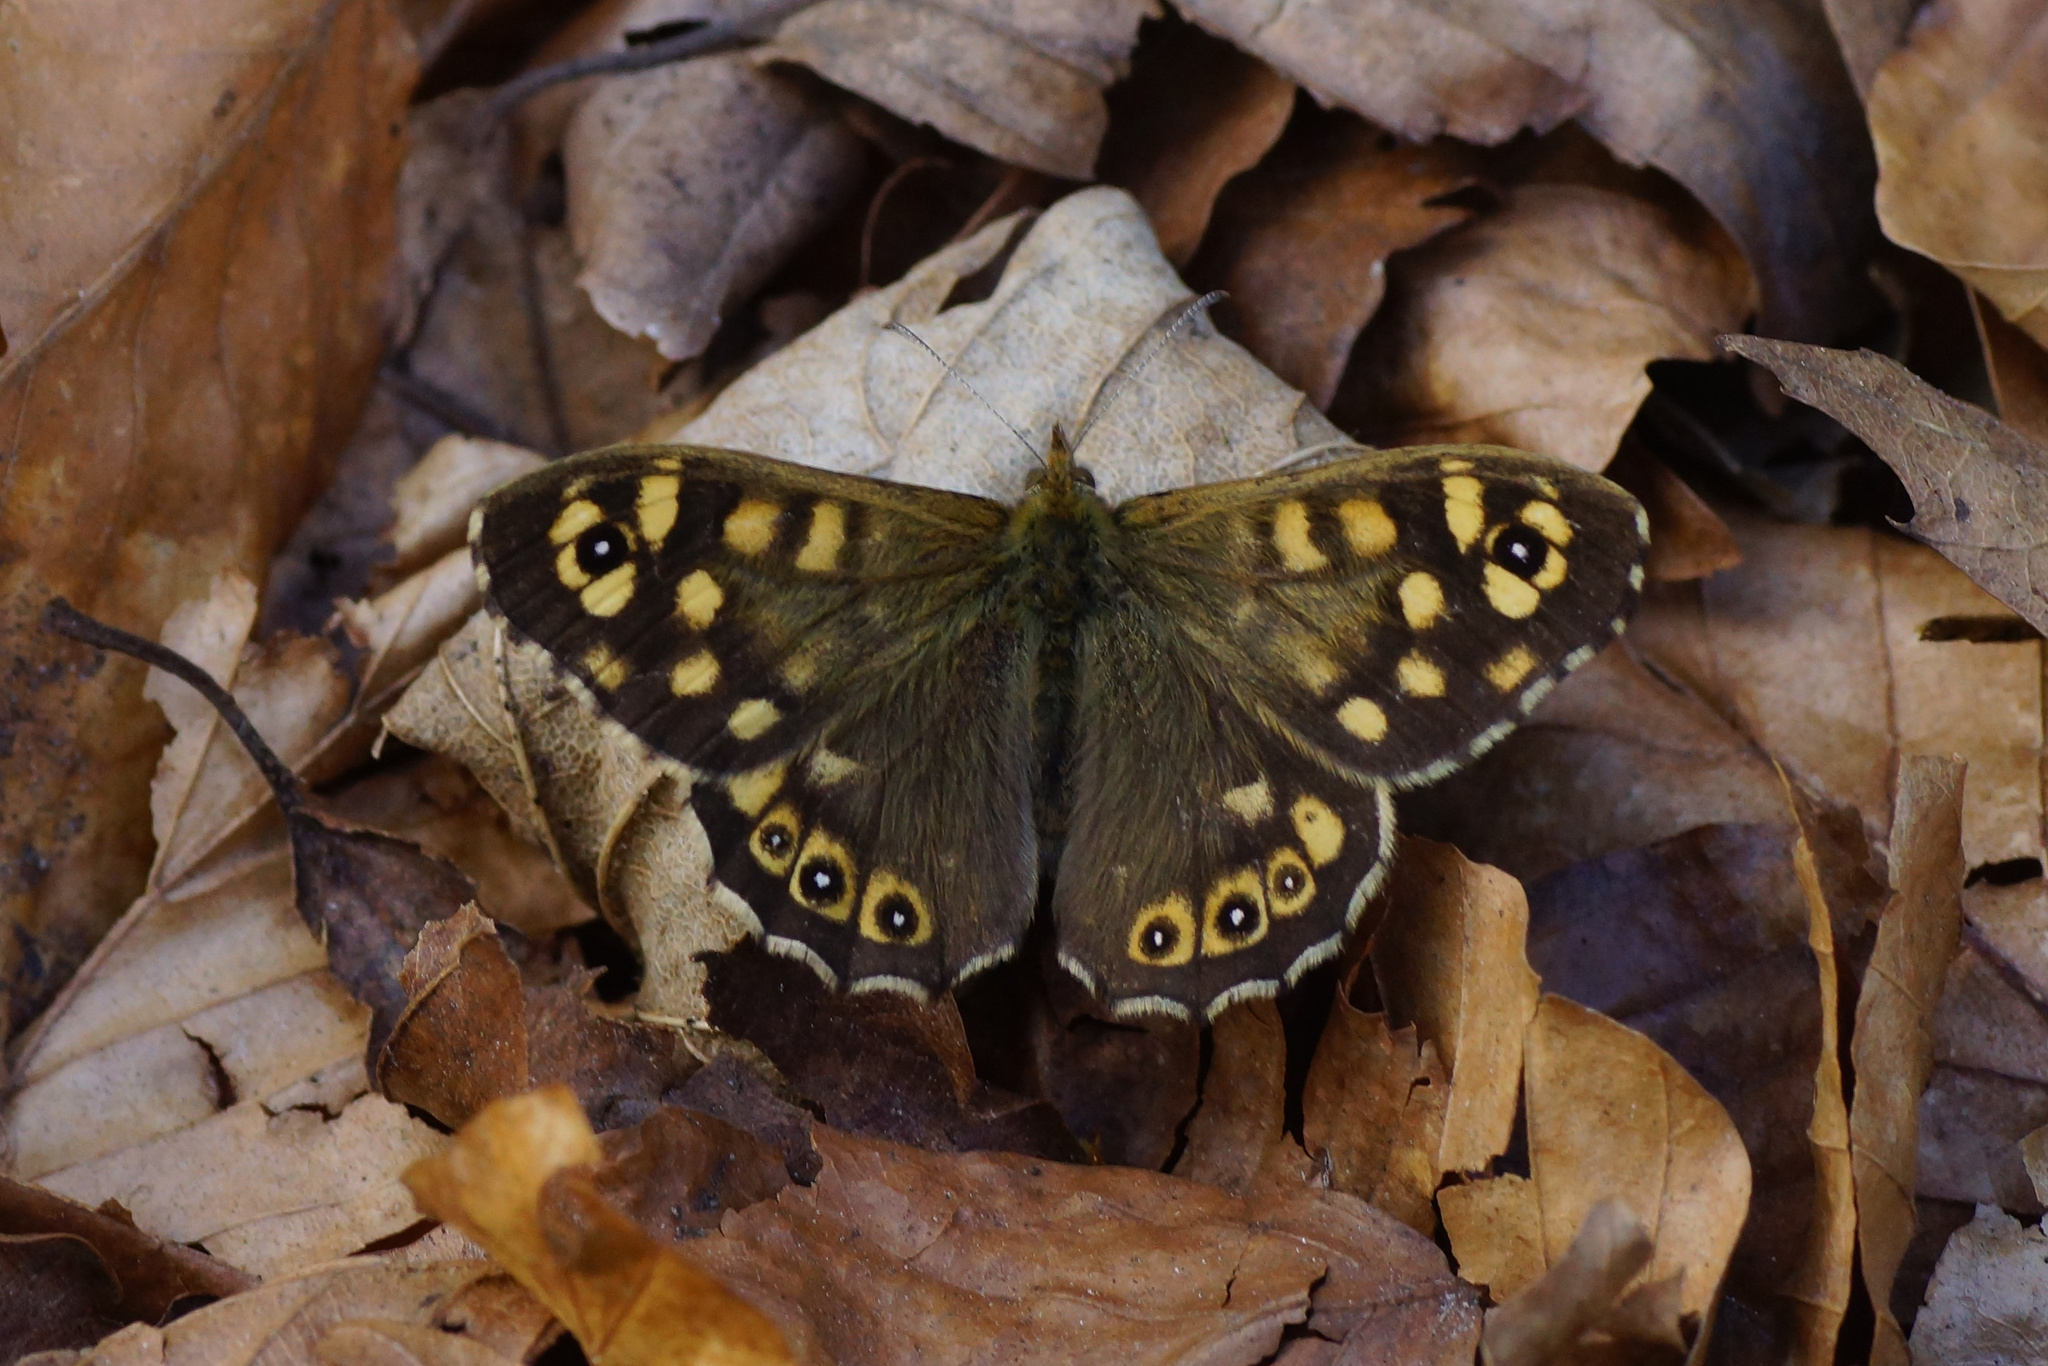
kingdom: Animalia
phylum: Arthropoda
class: Insecta
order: Lepidoptera
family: Nymphalidae
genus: Pararge
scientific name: Pararge aegeria
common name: Speckled wood
